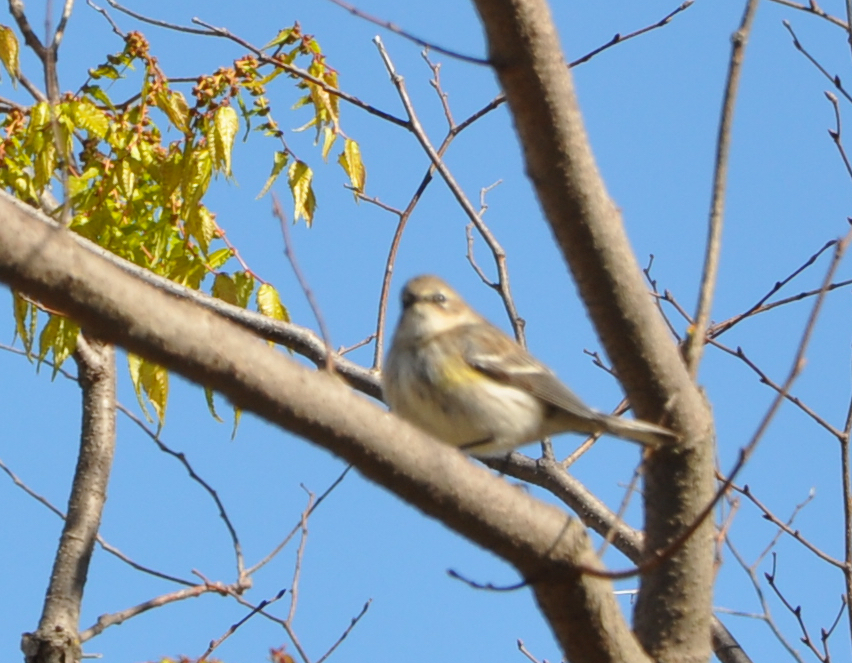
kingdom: Animalia
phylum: Chordata
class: Aves
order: Passeriformes
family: Parulidae
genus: Setophaga
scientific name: Setophaga coronata
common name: Myrtle warbler
